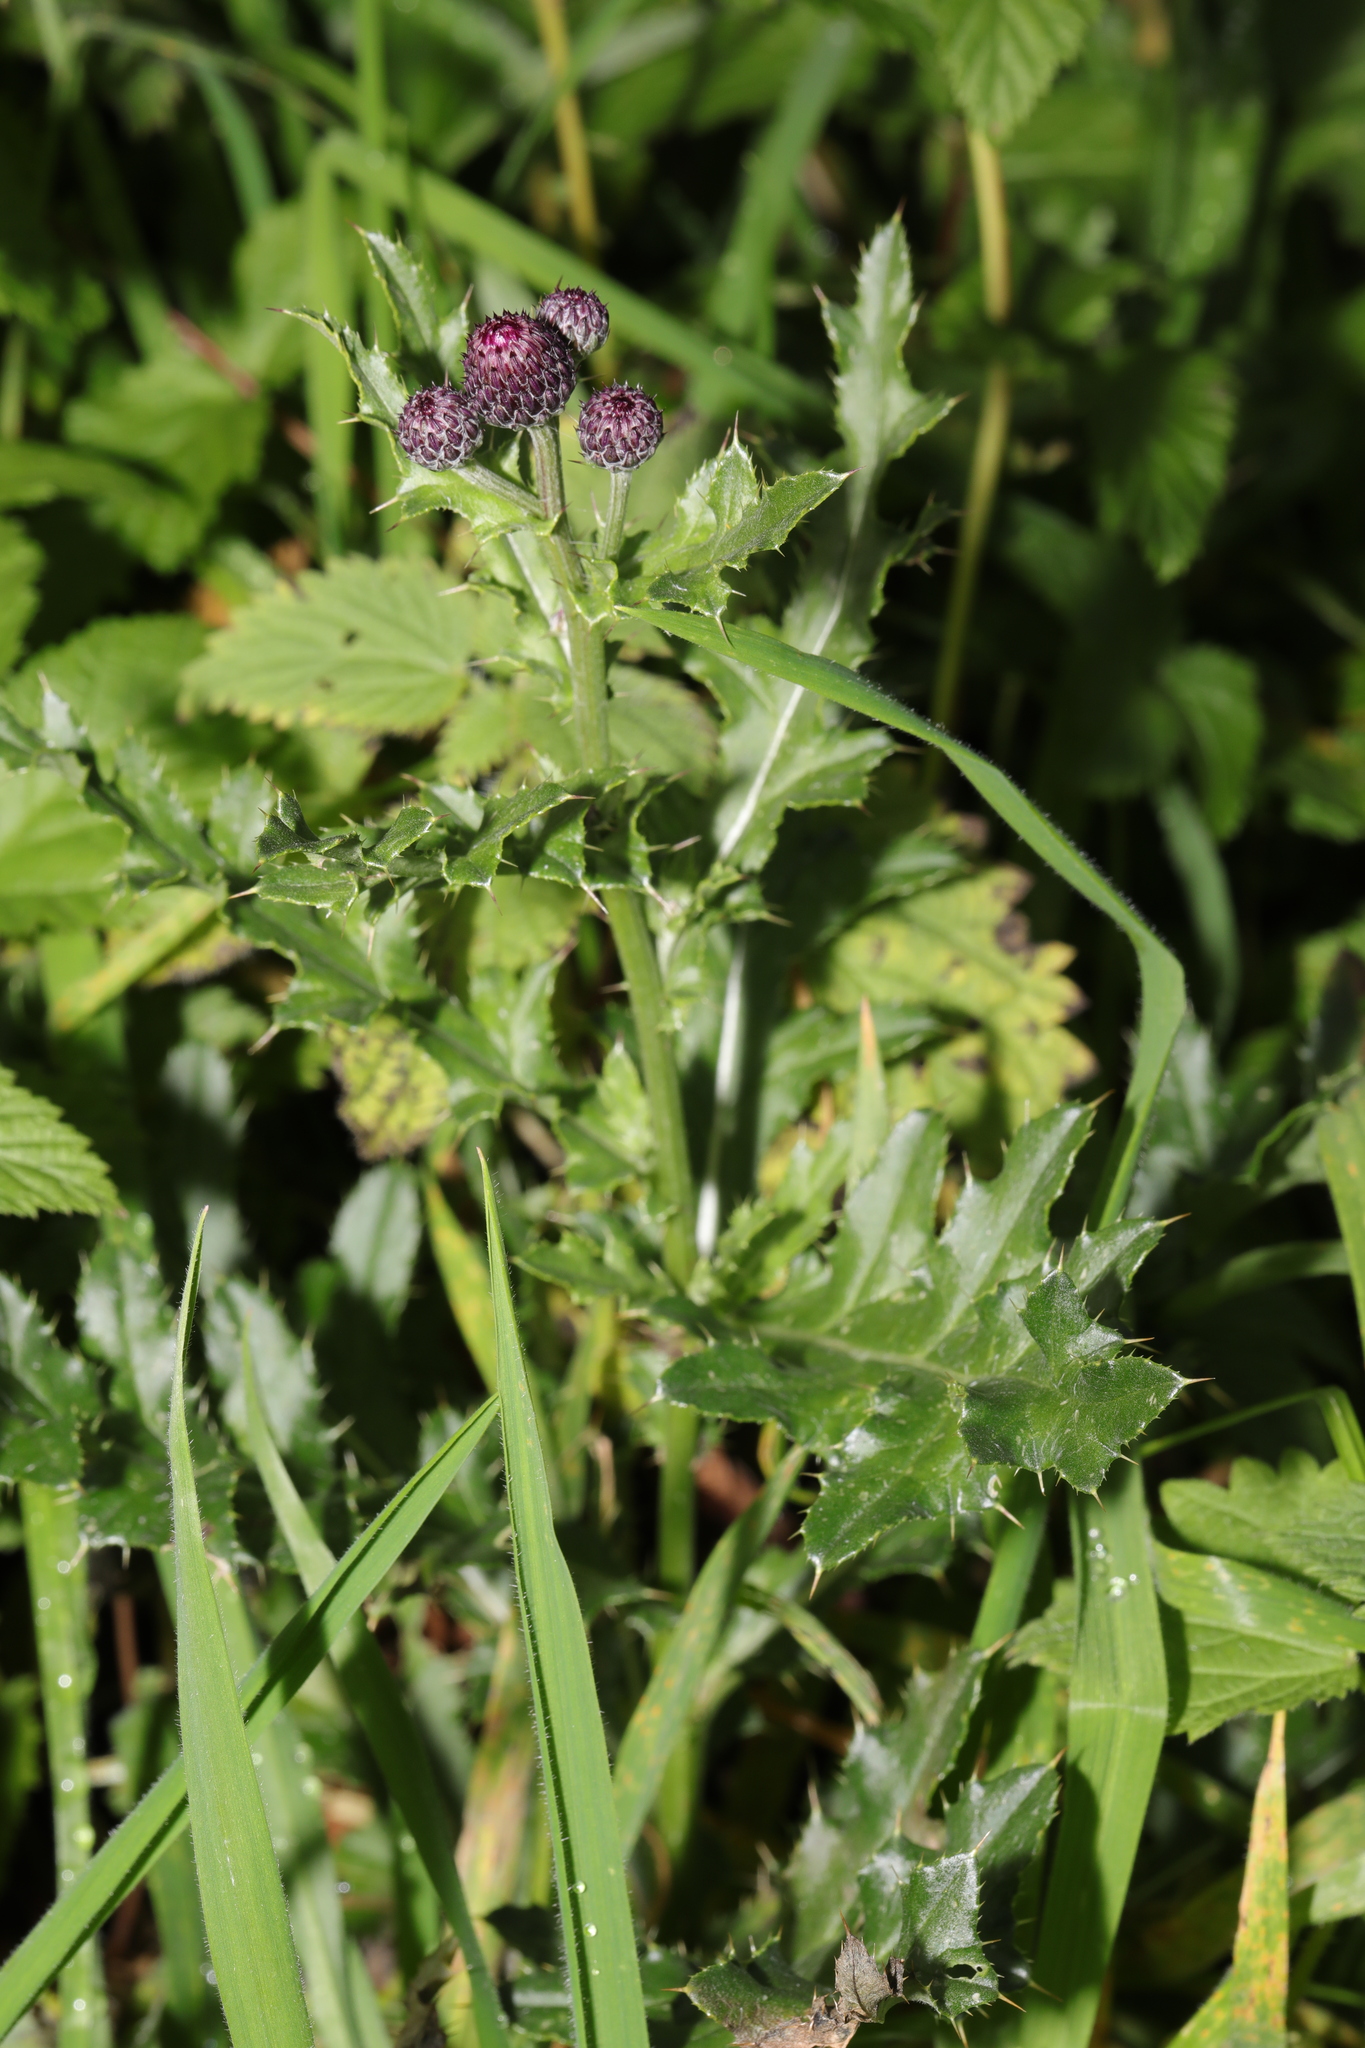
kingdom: Plantae
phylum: Tracheophyta
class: Magnoliopsida
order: Asterales
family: Asteraceae
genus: Cirsium
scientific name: Cirsium arvense
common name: Creeping thistle
